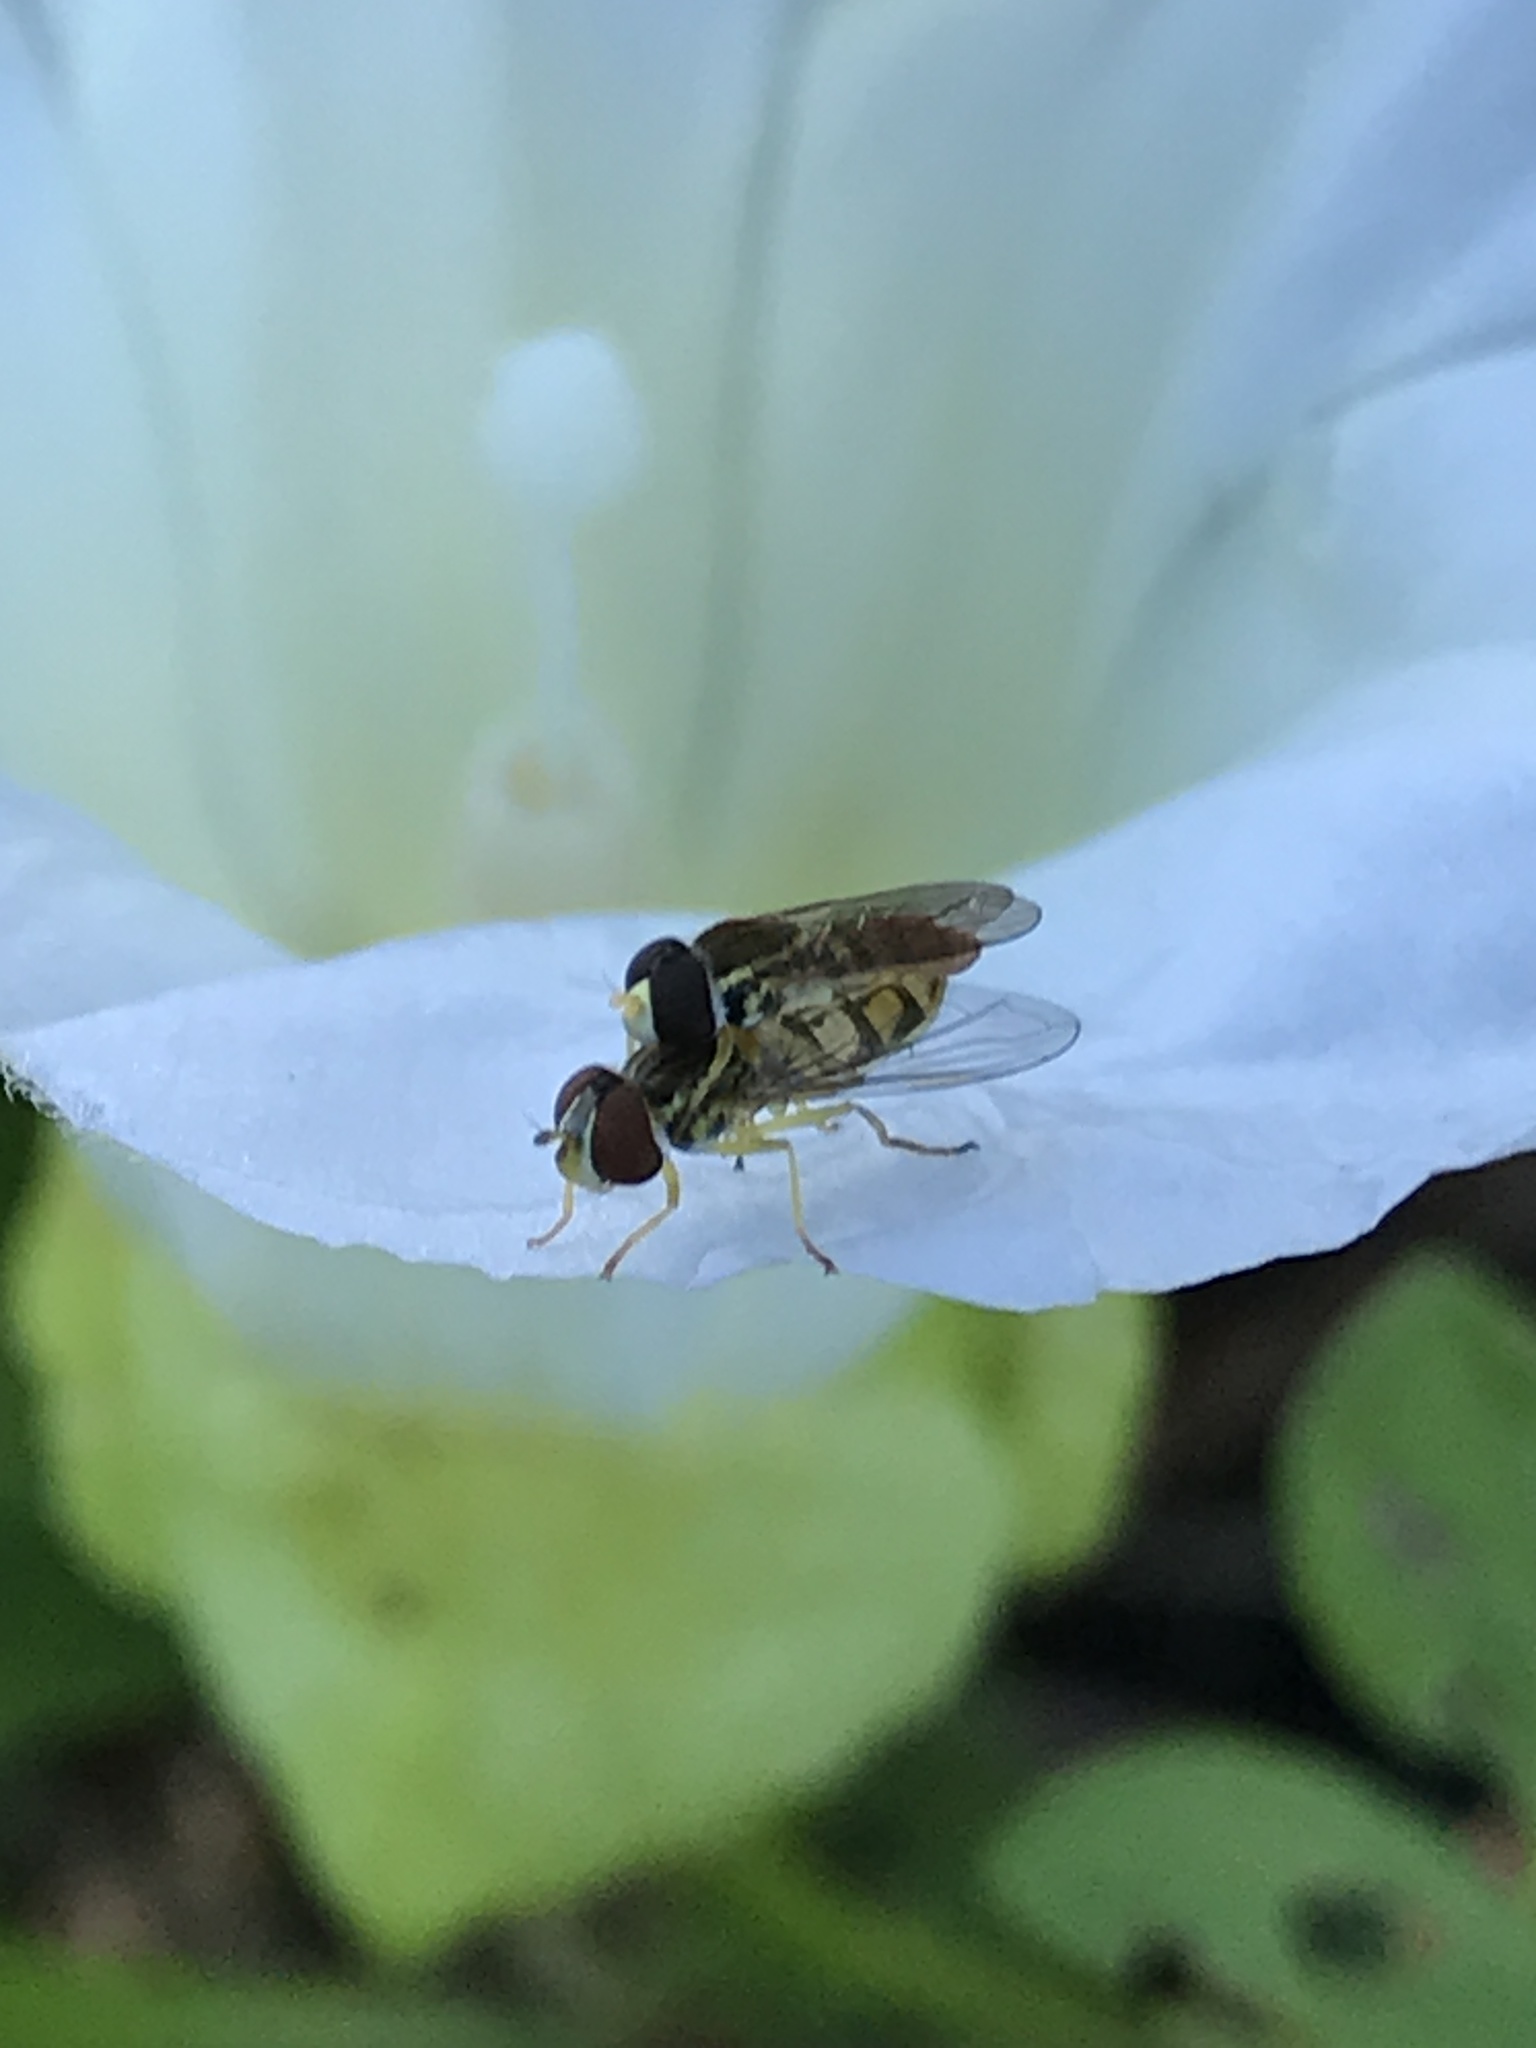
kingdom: Animalia
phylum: Arthropoda
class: Insecta
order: Diptera
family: Syrphidae
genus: Toxomerus
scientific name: Toxomerus marginatus
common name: Syrphid fly
